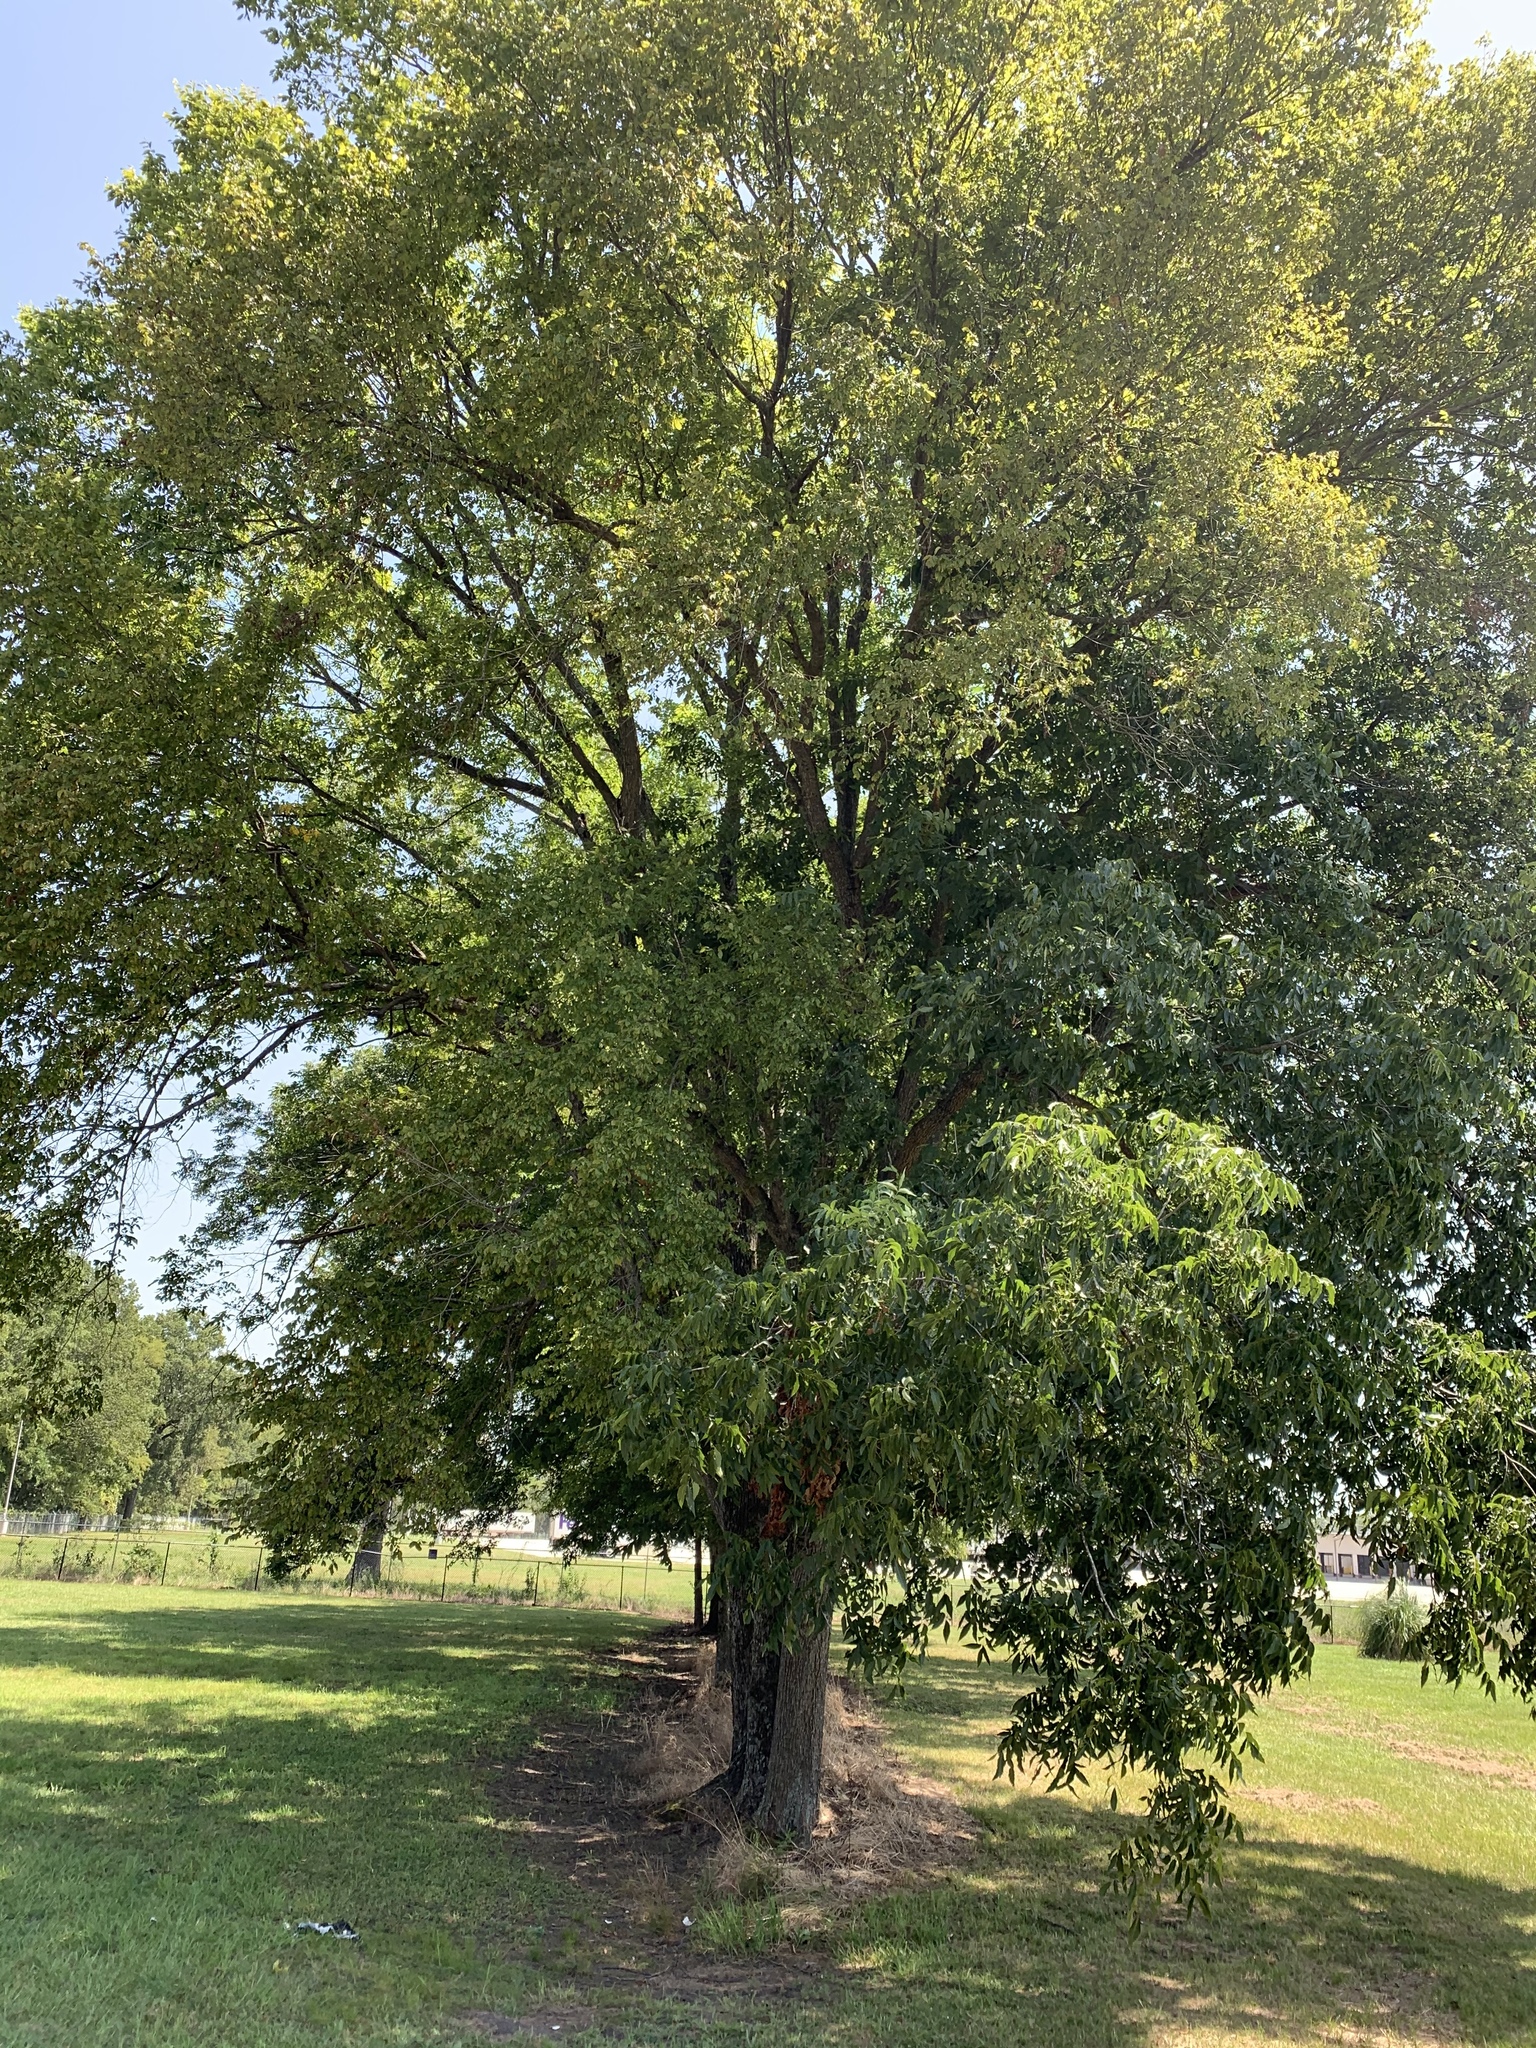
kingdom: Plantae
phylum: Tracheophyta
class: Magnoliopsida
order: Fagales
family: Juglandaceae
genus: Carya
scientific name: Carya illinoinensis
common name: Pecan
